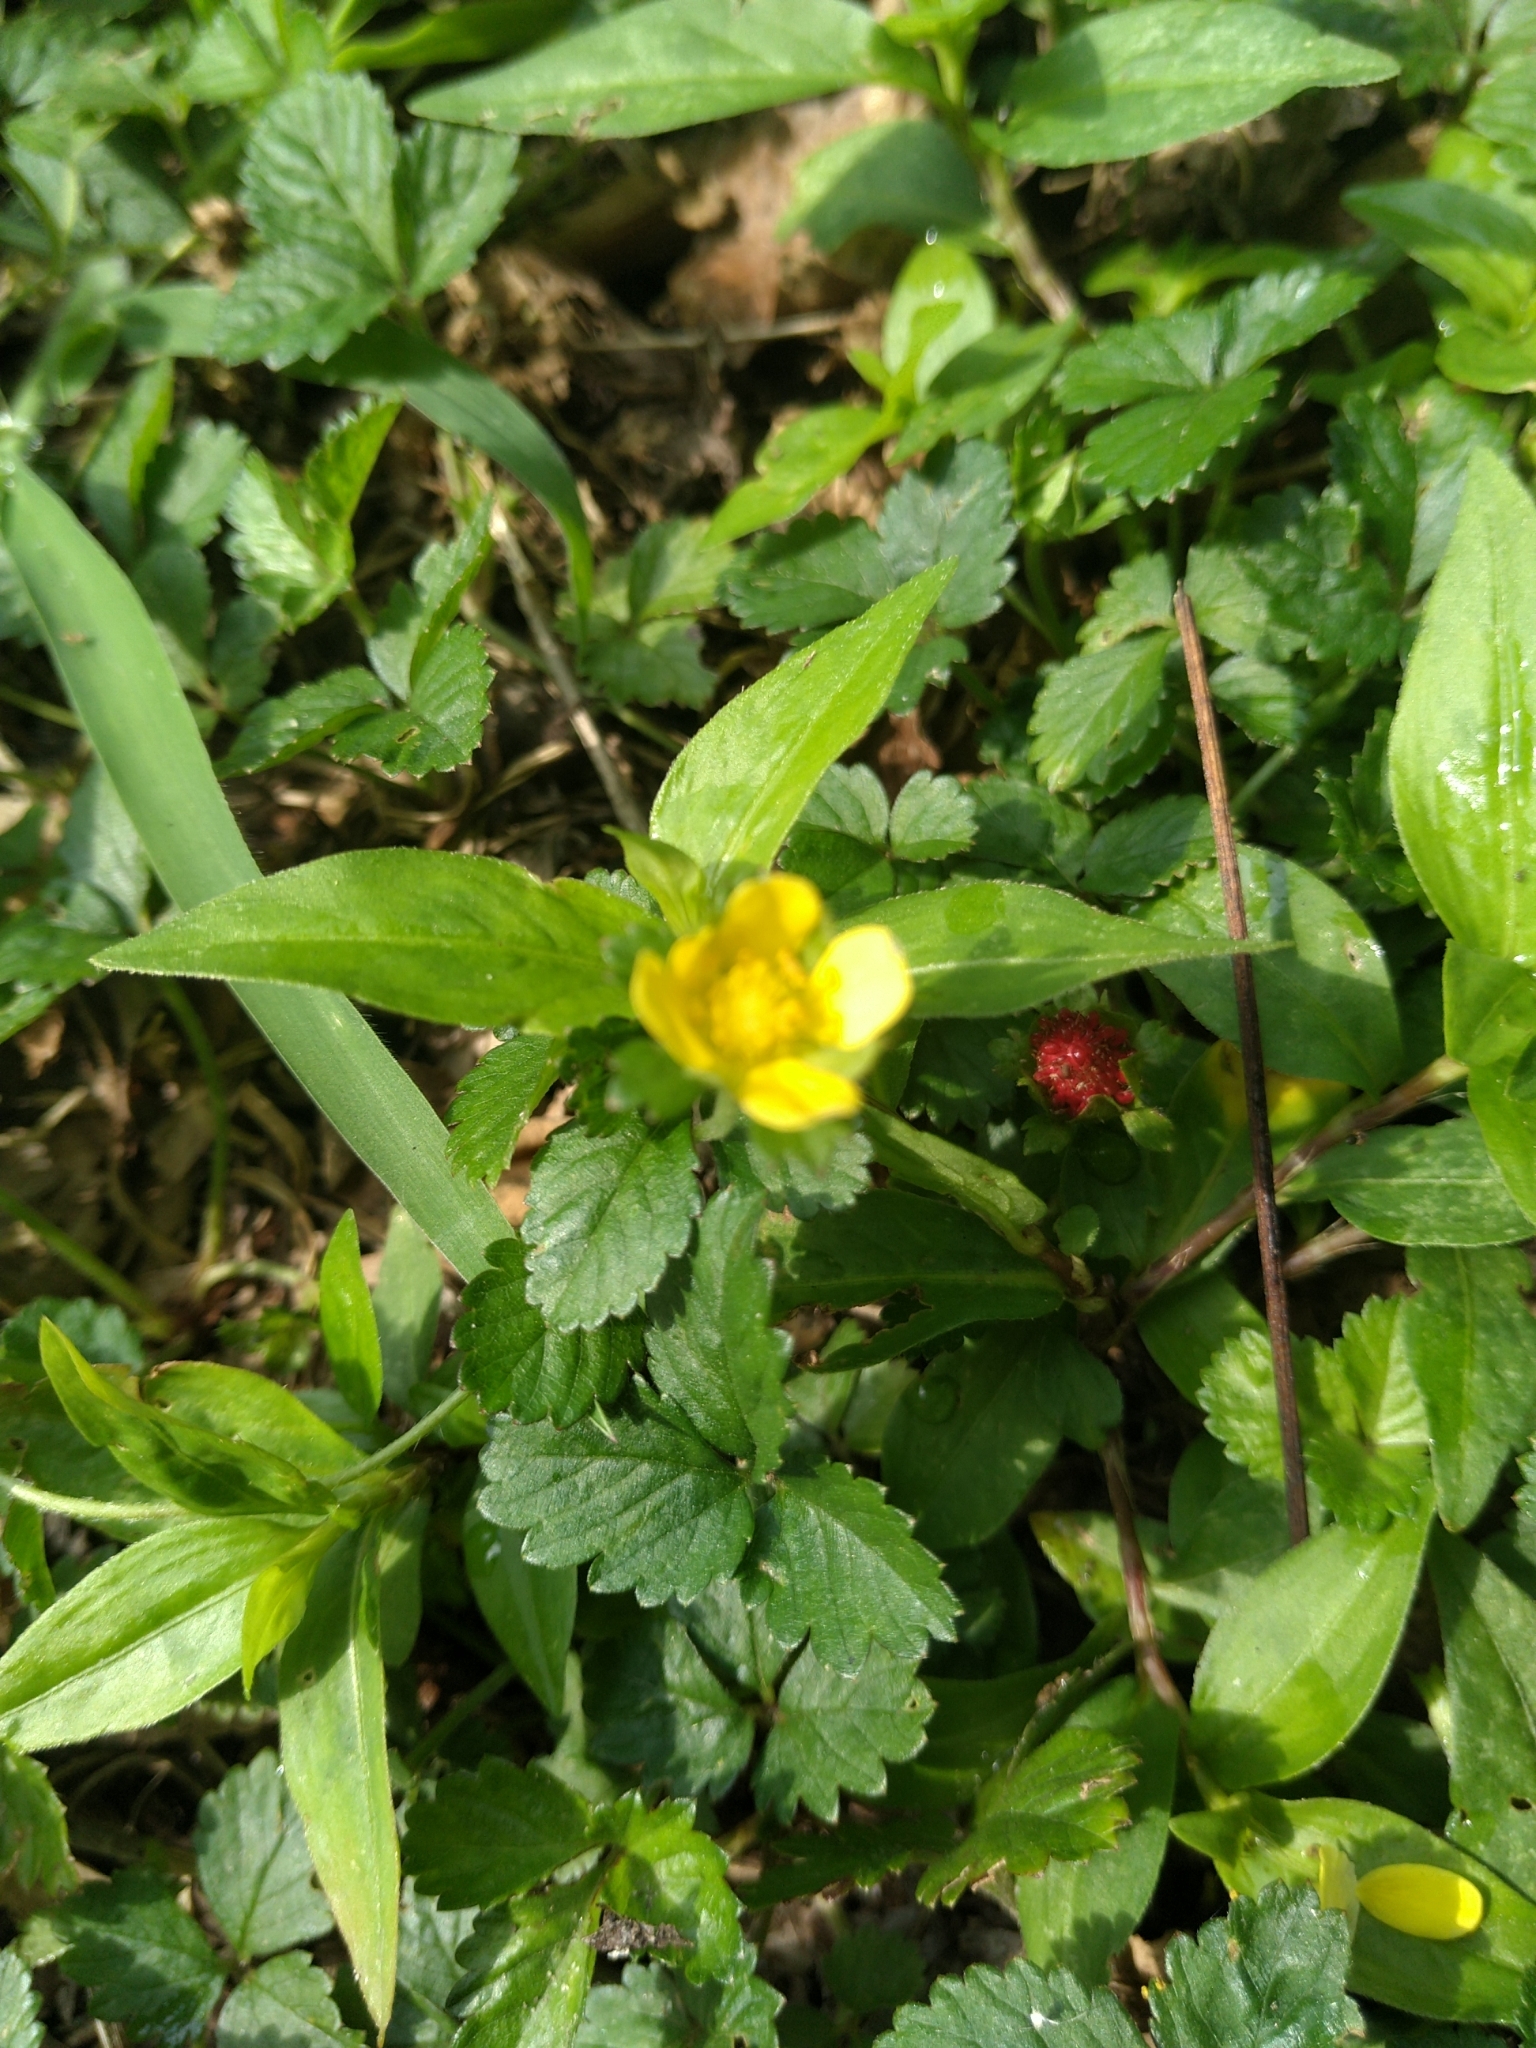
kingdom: Plantae
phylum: Tracheophyta
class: Magnoliopsida
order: Rosales
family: Rosaceae
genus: Potentilla
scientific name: Potentilla indica
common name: Yellow-flowered strawberry
